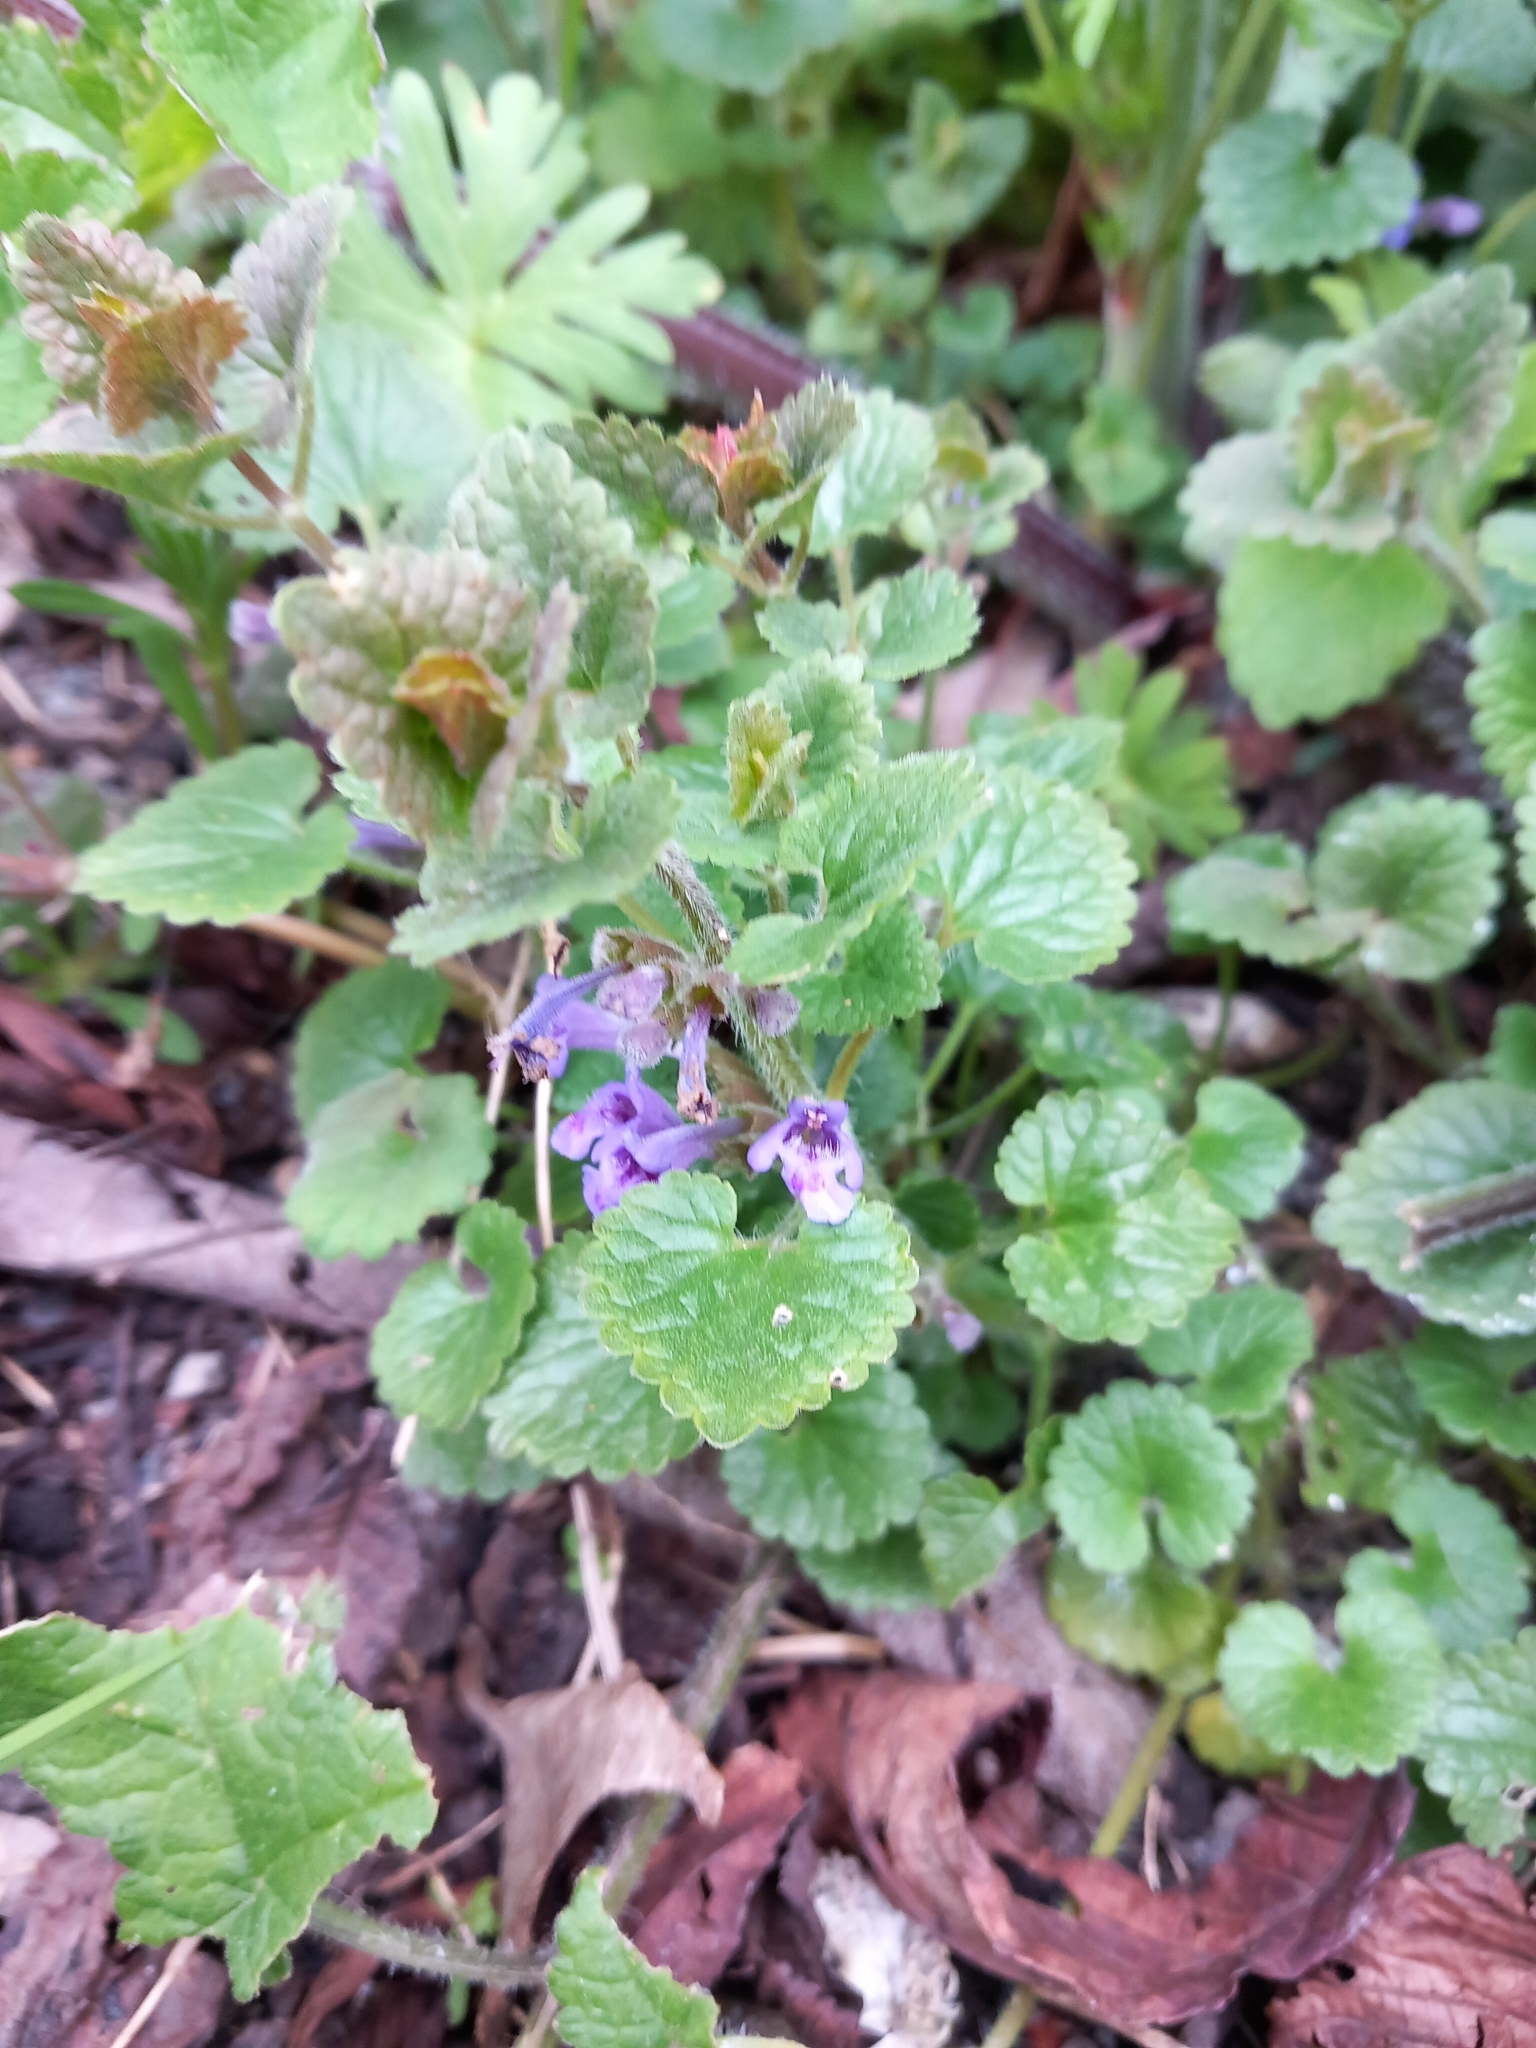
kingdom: Plantae
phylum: Tracheophyta
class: Magnoliopsida
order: Lamiales
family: Lamiaceae
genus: Glechoma
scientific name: Glechoma hederacea
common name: Ground ivy
